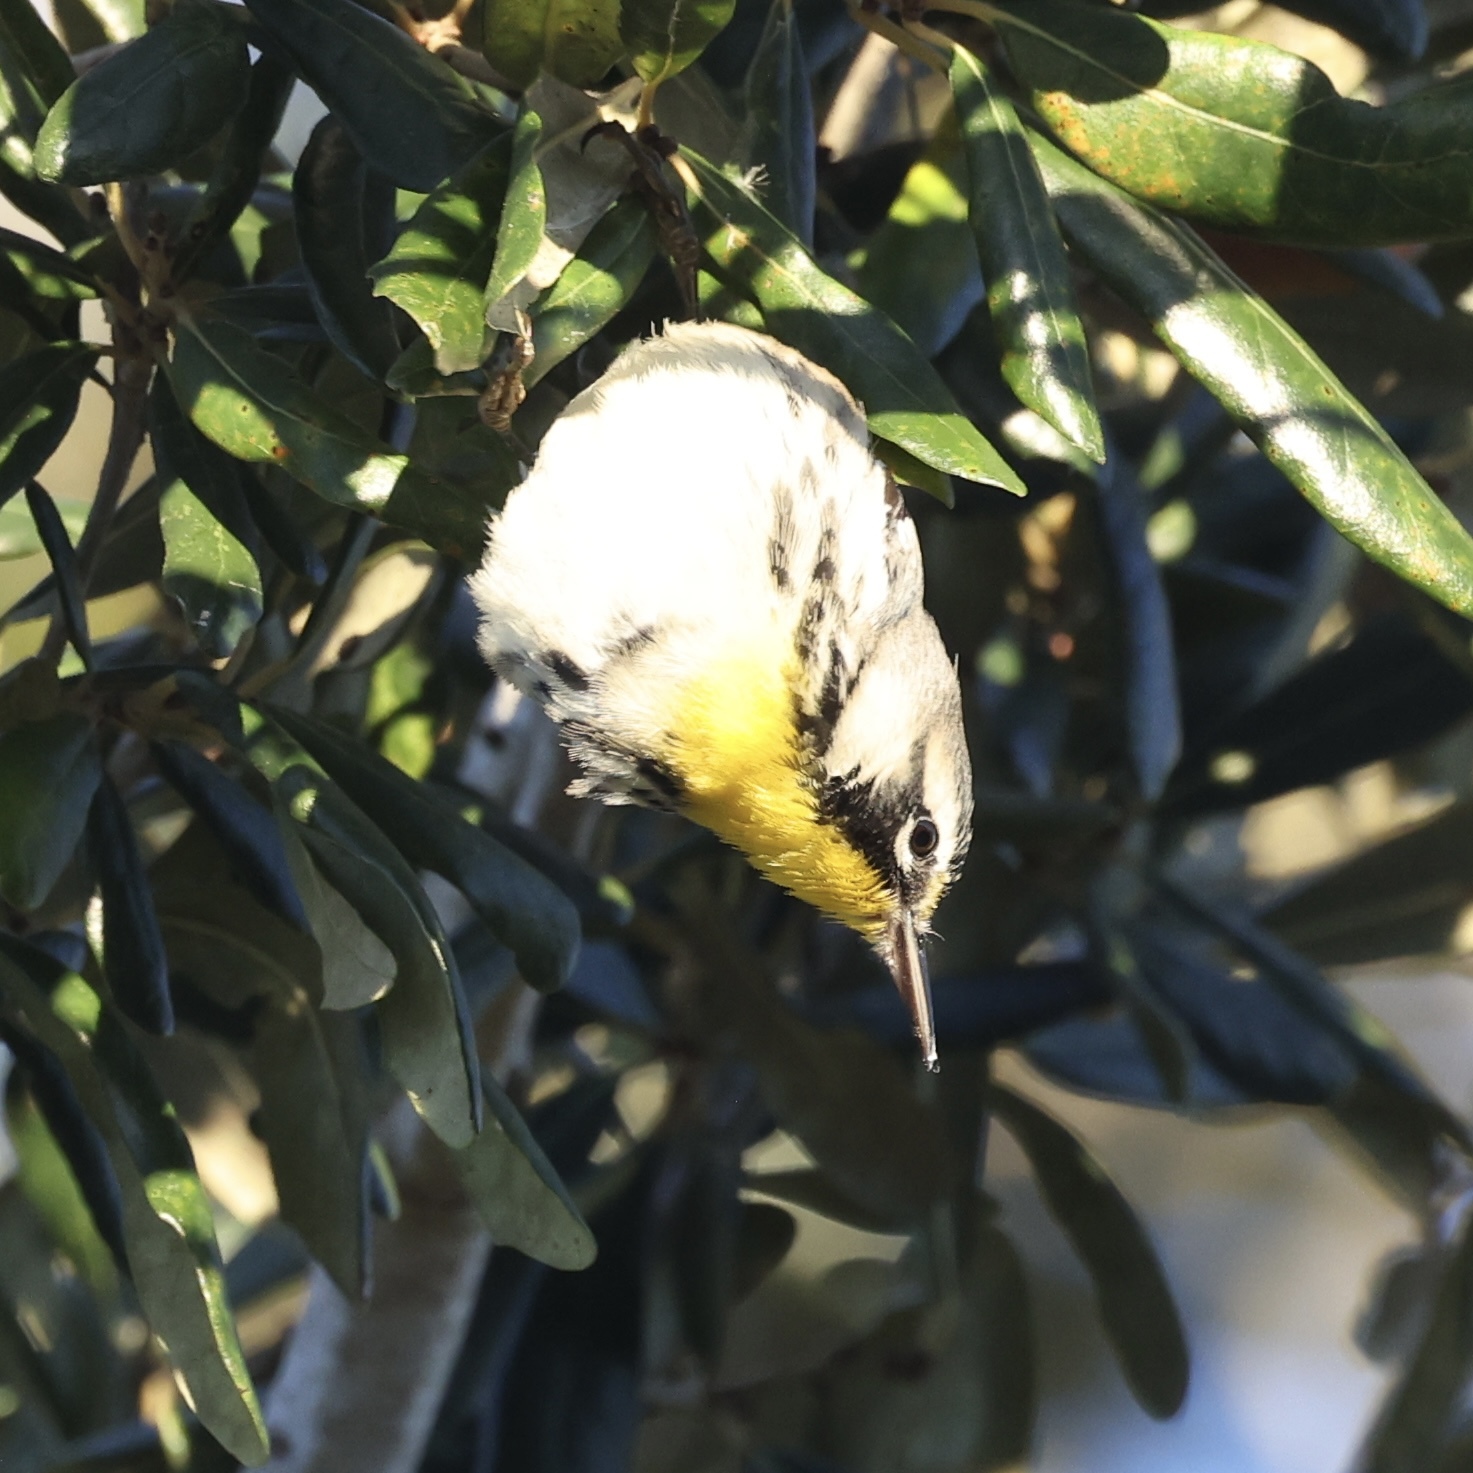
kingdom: Animalia
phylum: Chordata
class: Aves
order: Passeriformes
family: Parulidae
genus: Setophaga
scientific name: Setophaga dominica
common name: Yellow-throated warbler
